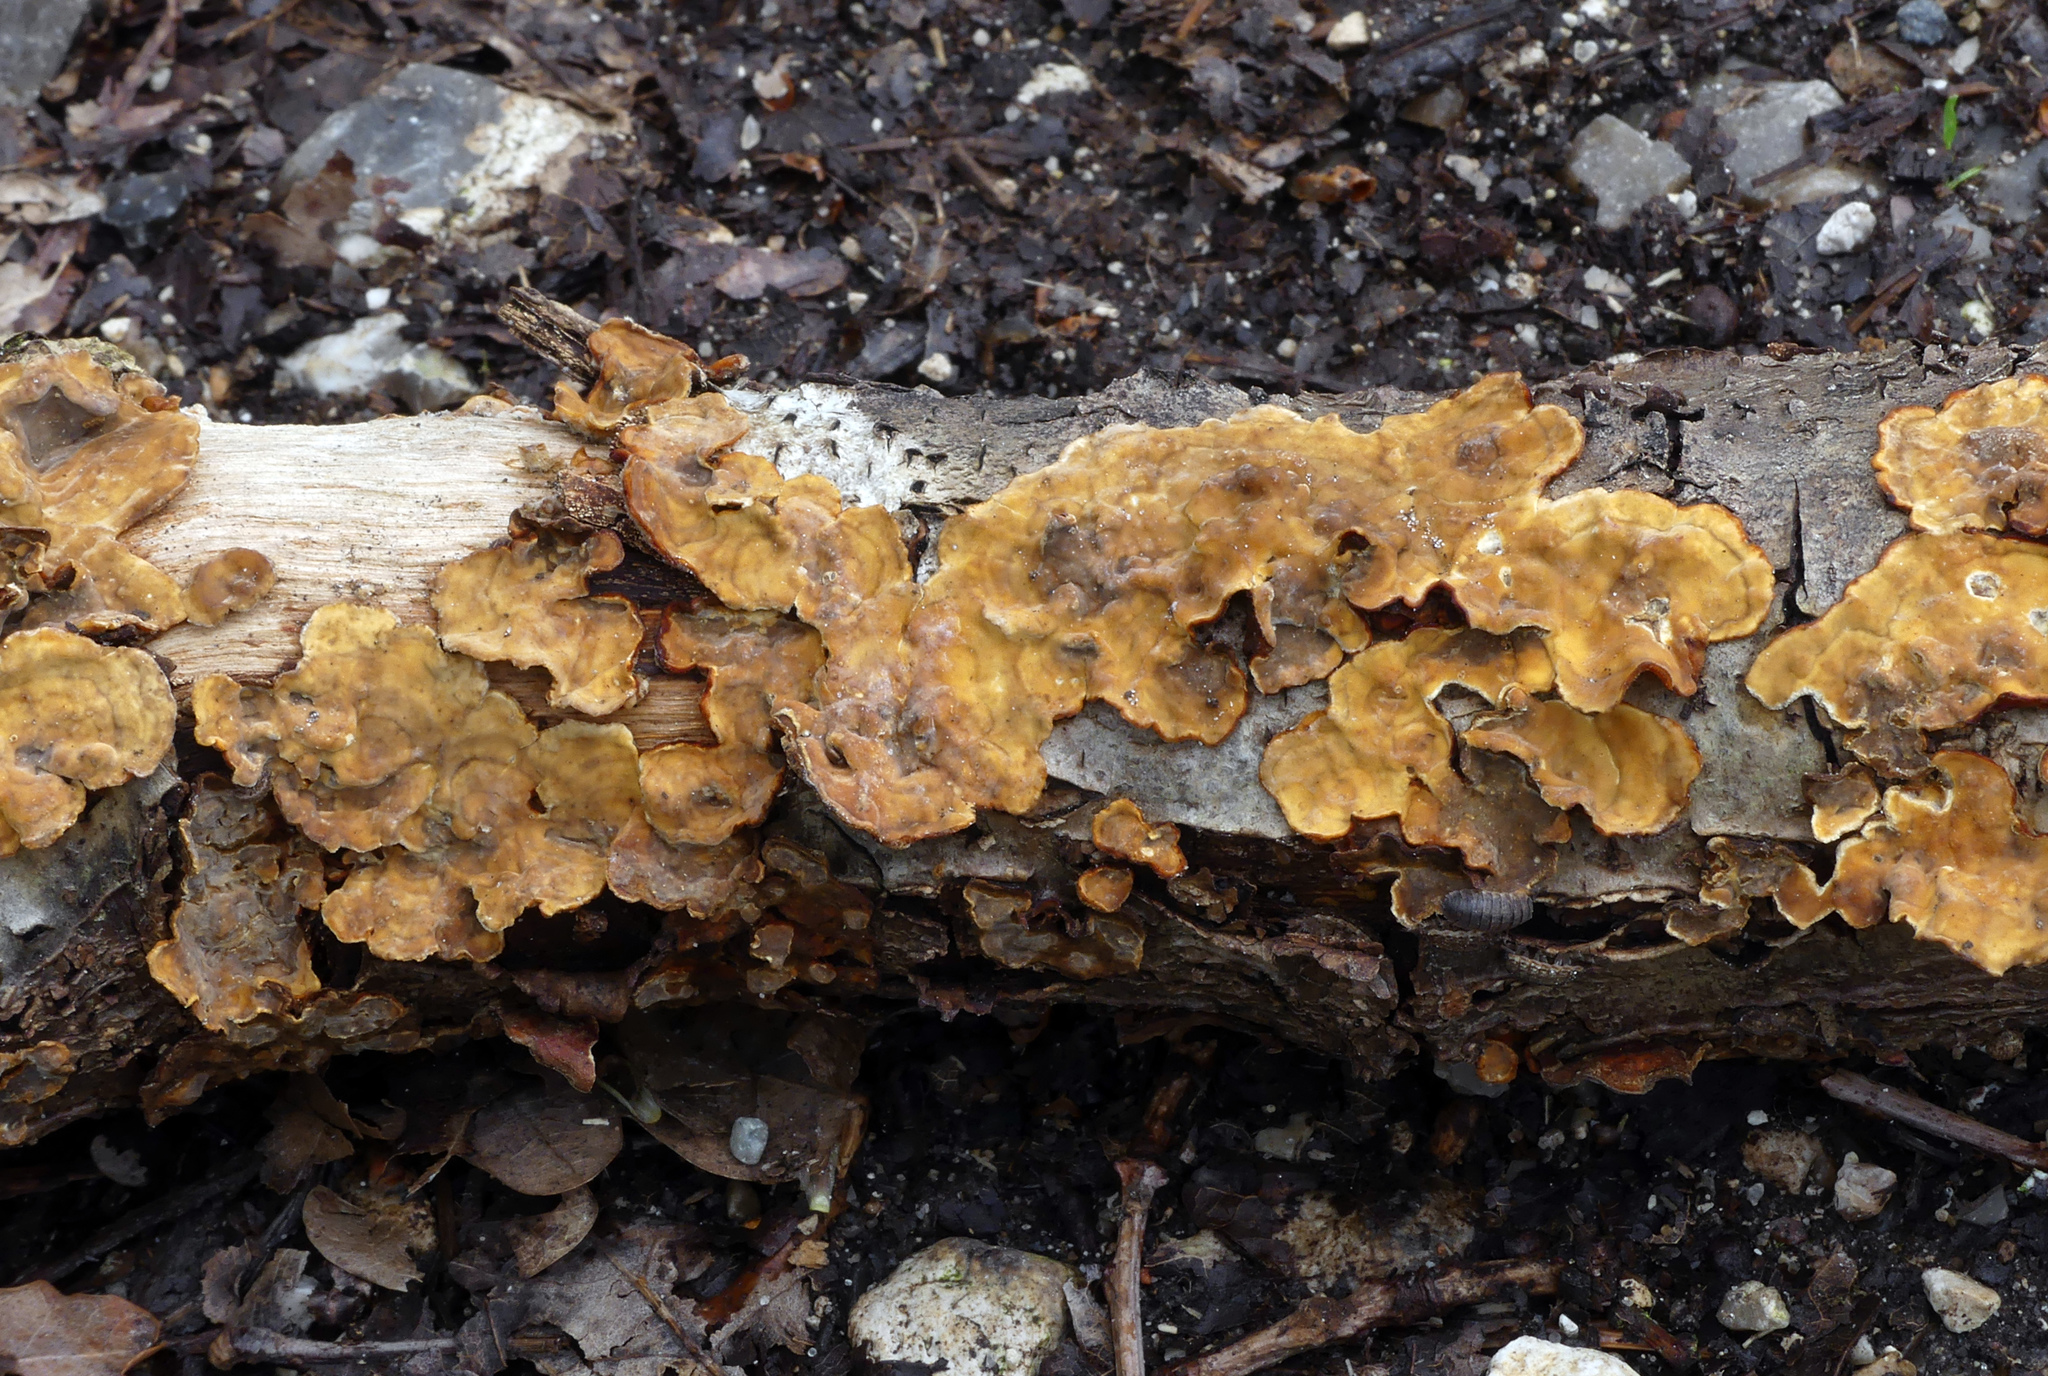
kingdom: Fungi
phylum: Basidiomycota
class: Agaricomycetes
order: Russulales
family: Stereaceae
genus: Stereum
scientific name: Stereum hirsutum
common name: Hairy curtain crust
